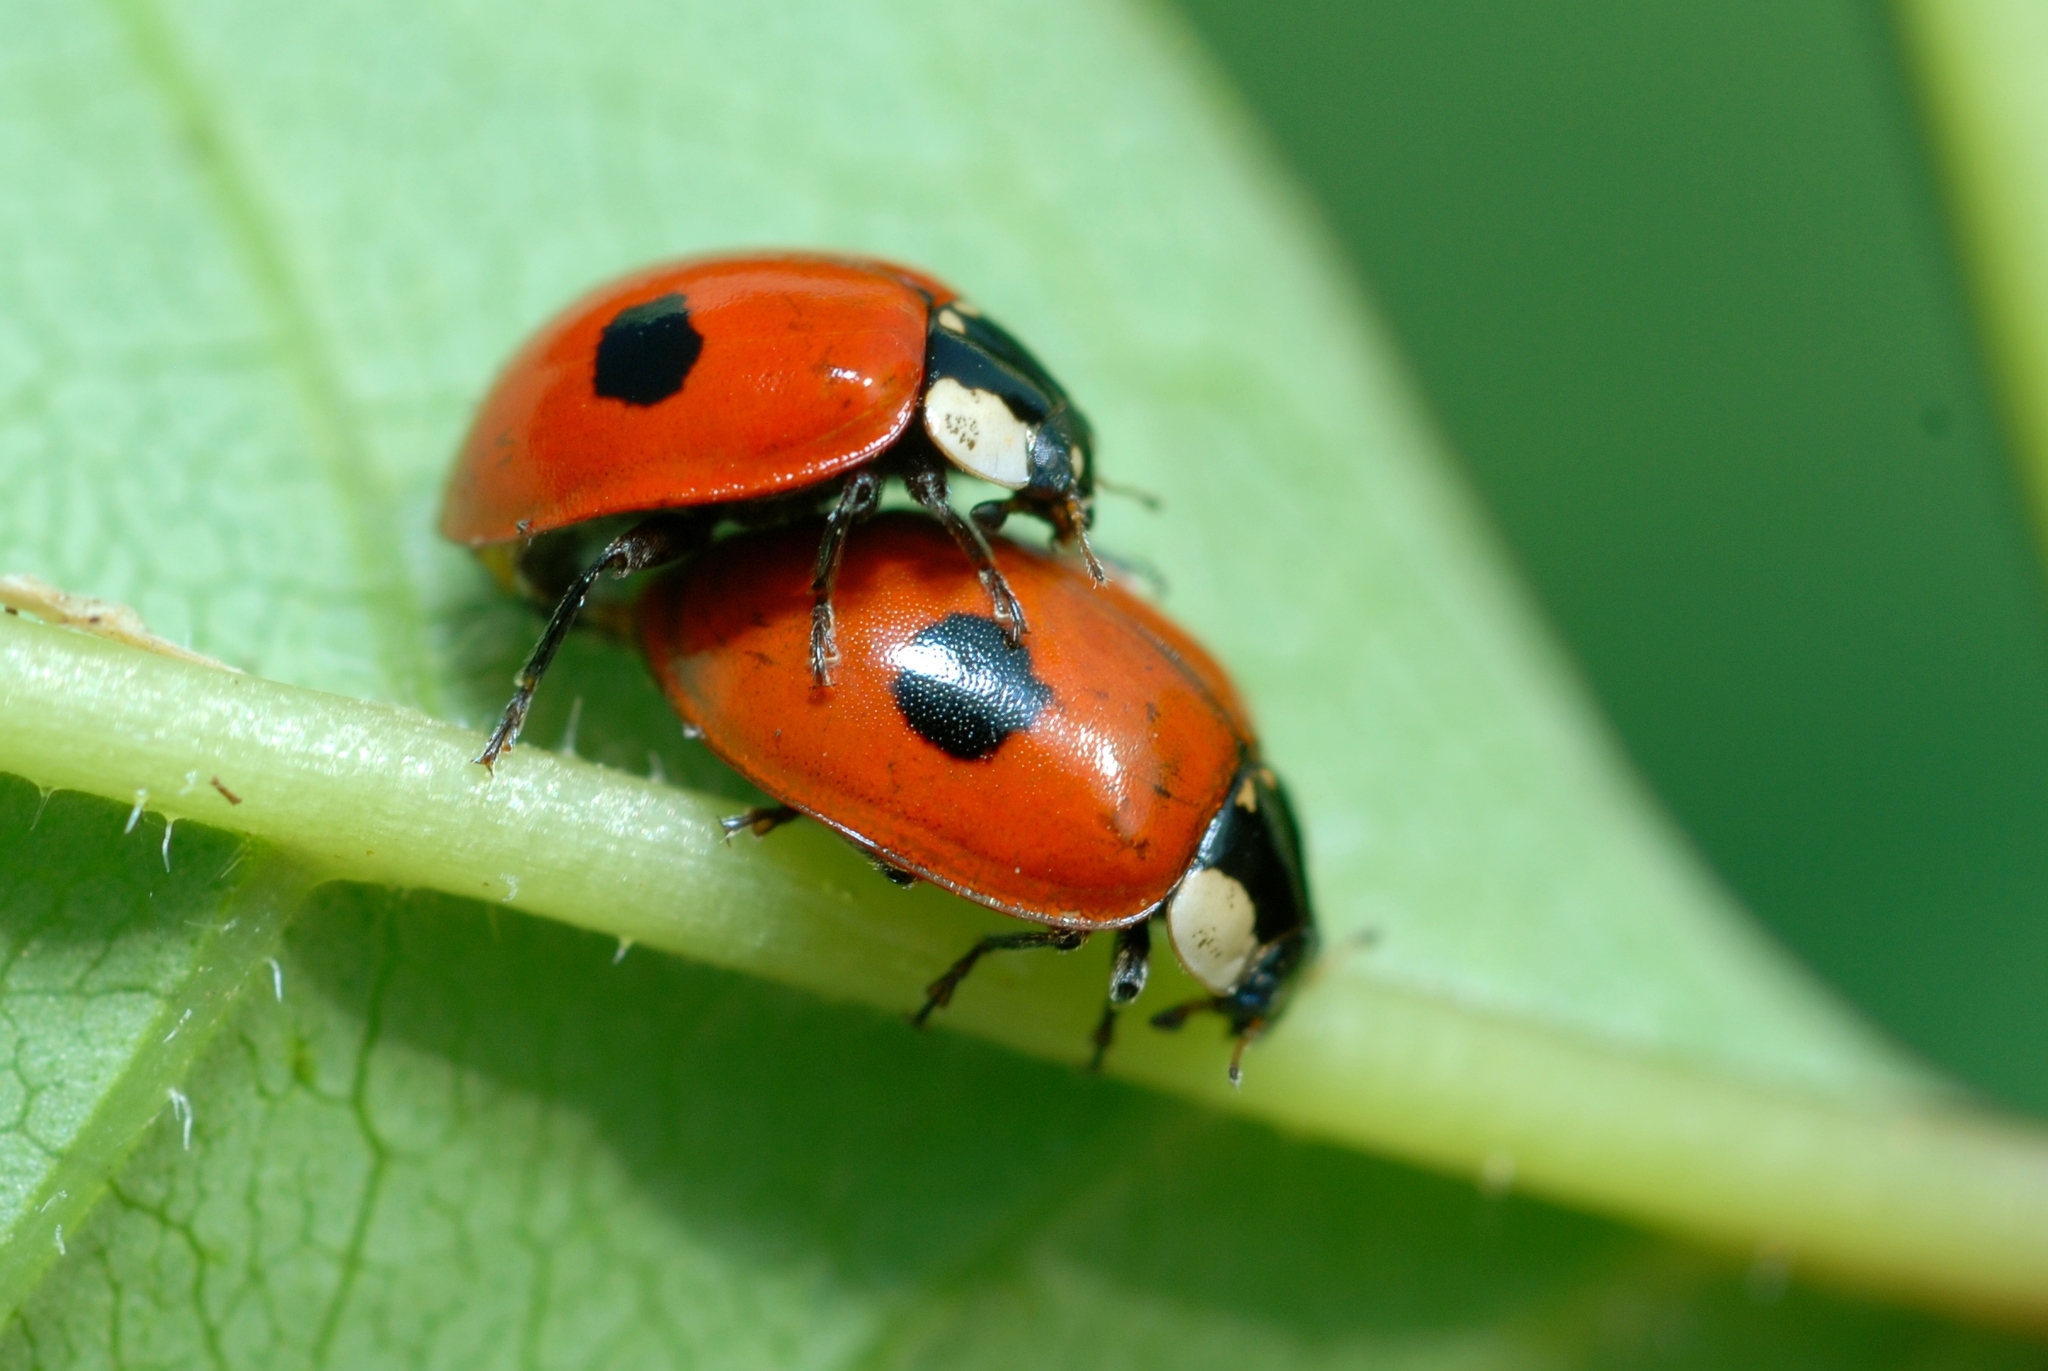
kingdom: Animalia
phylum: Arthropoda
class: Insecta
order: Coleoptera
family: Coccinellidae
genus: Adalia
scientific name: Adalia bipunctata
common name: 2-spot ladybird
